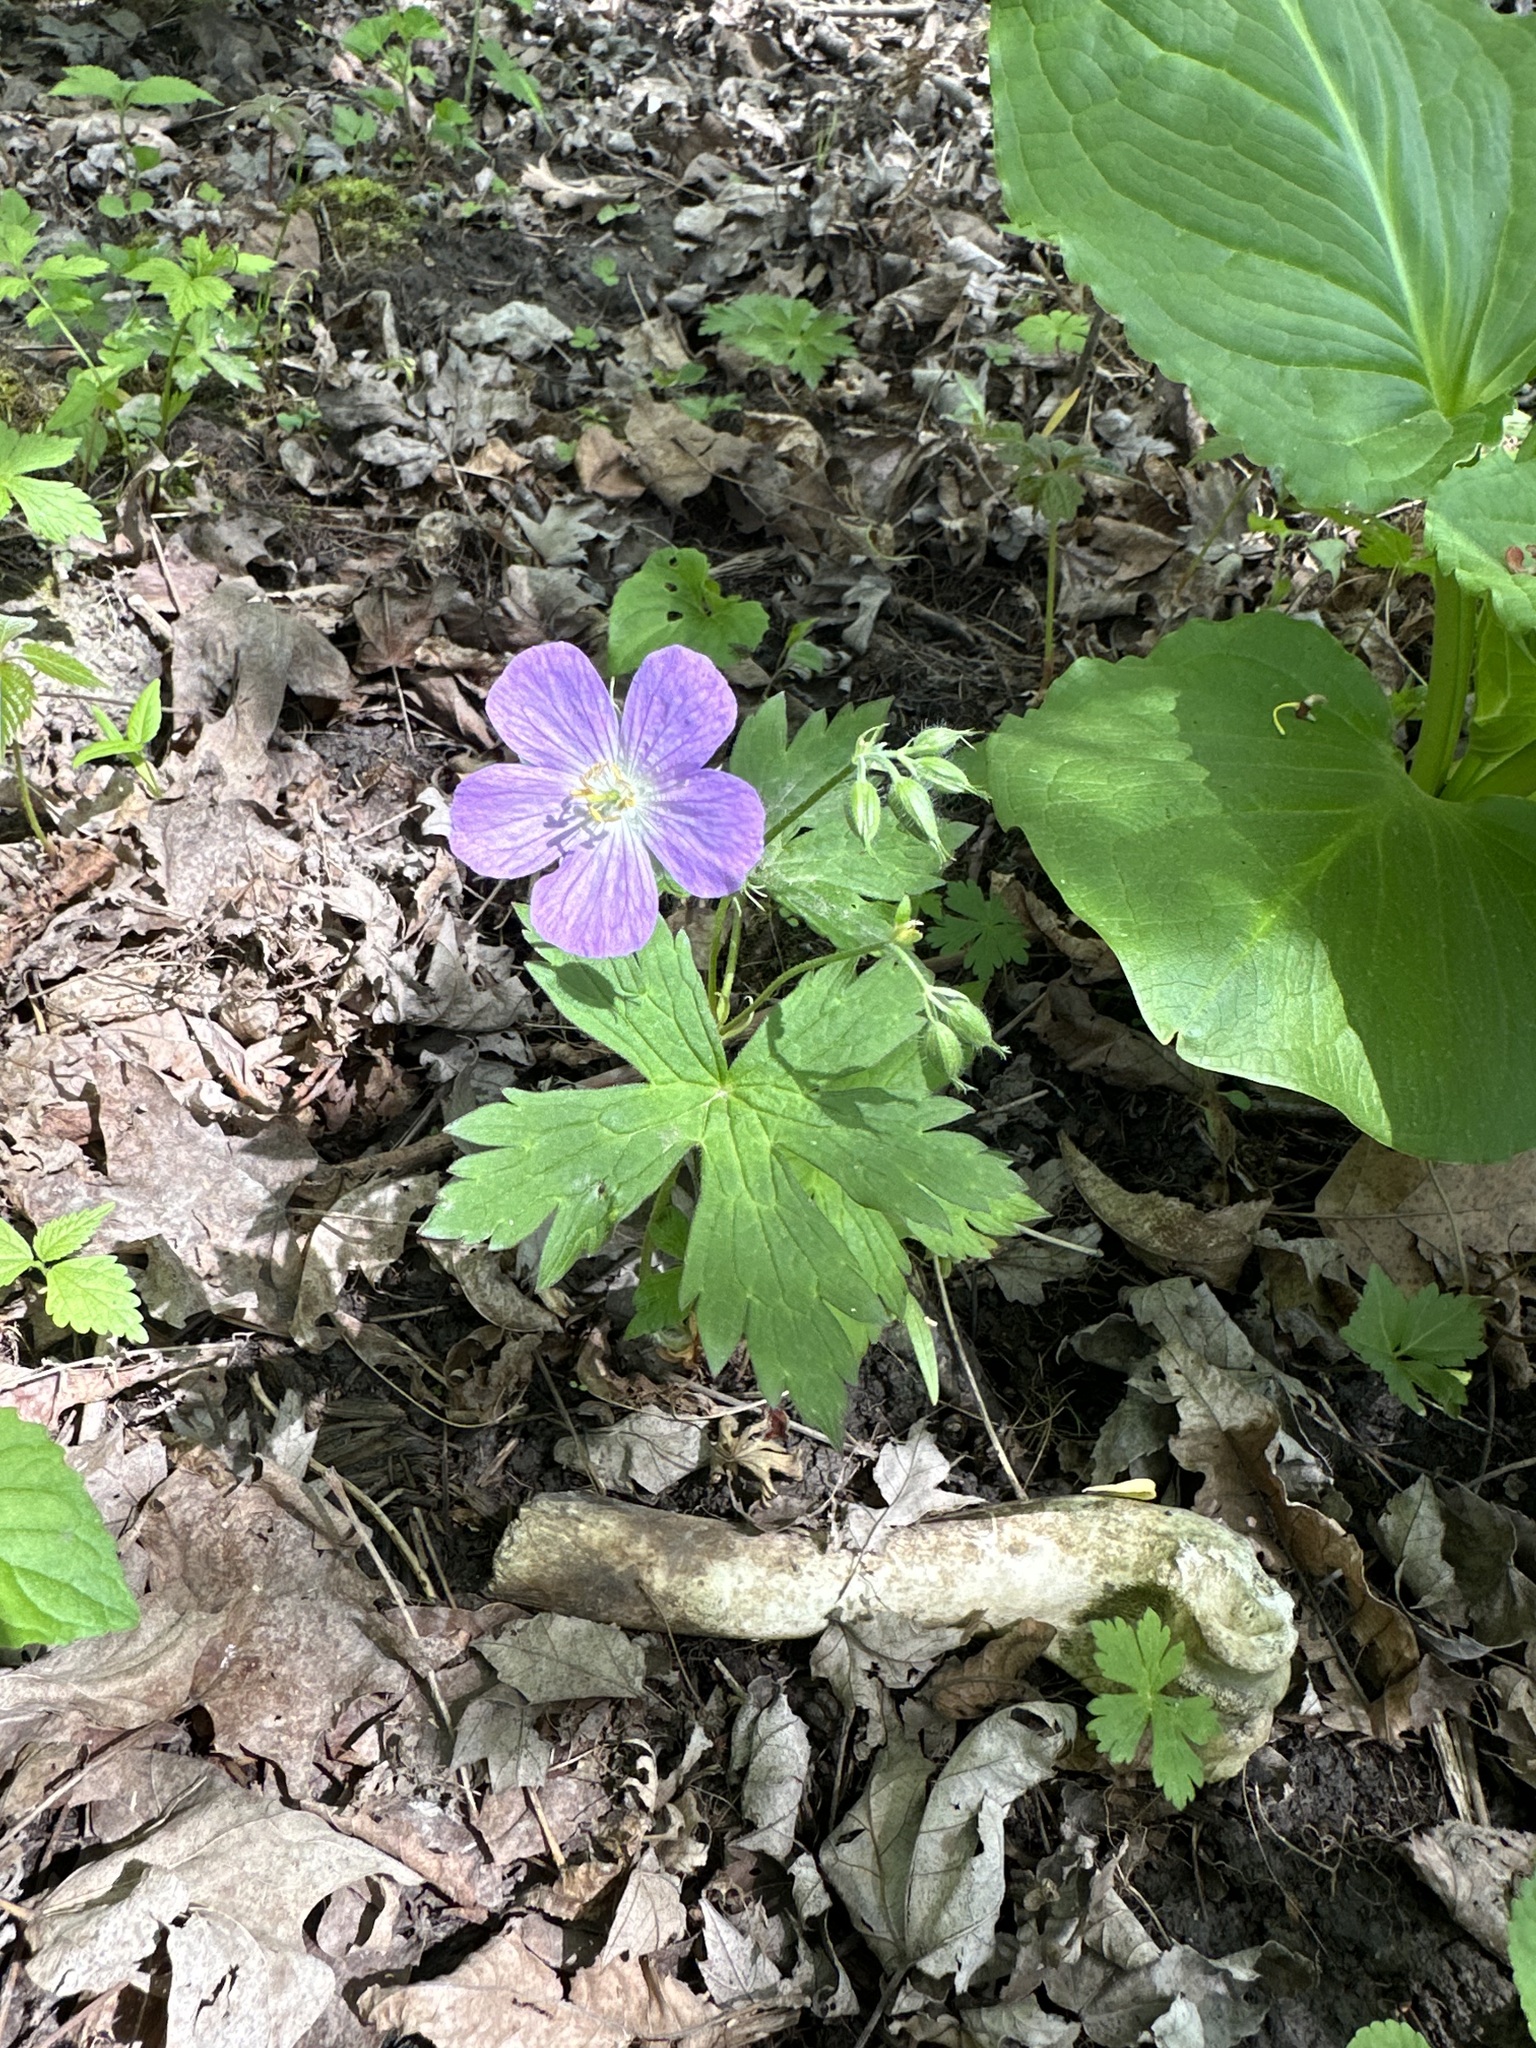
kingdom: Plantae
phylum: Tracheophyta
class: Magnoliopsida
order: Geraniales
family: Geraniaceae
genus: Geranium
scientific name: Geranium maculatum
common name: Spotted geranium
